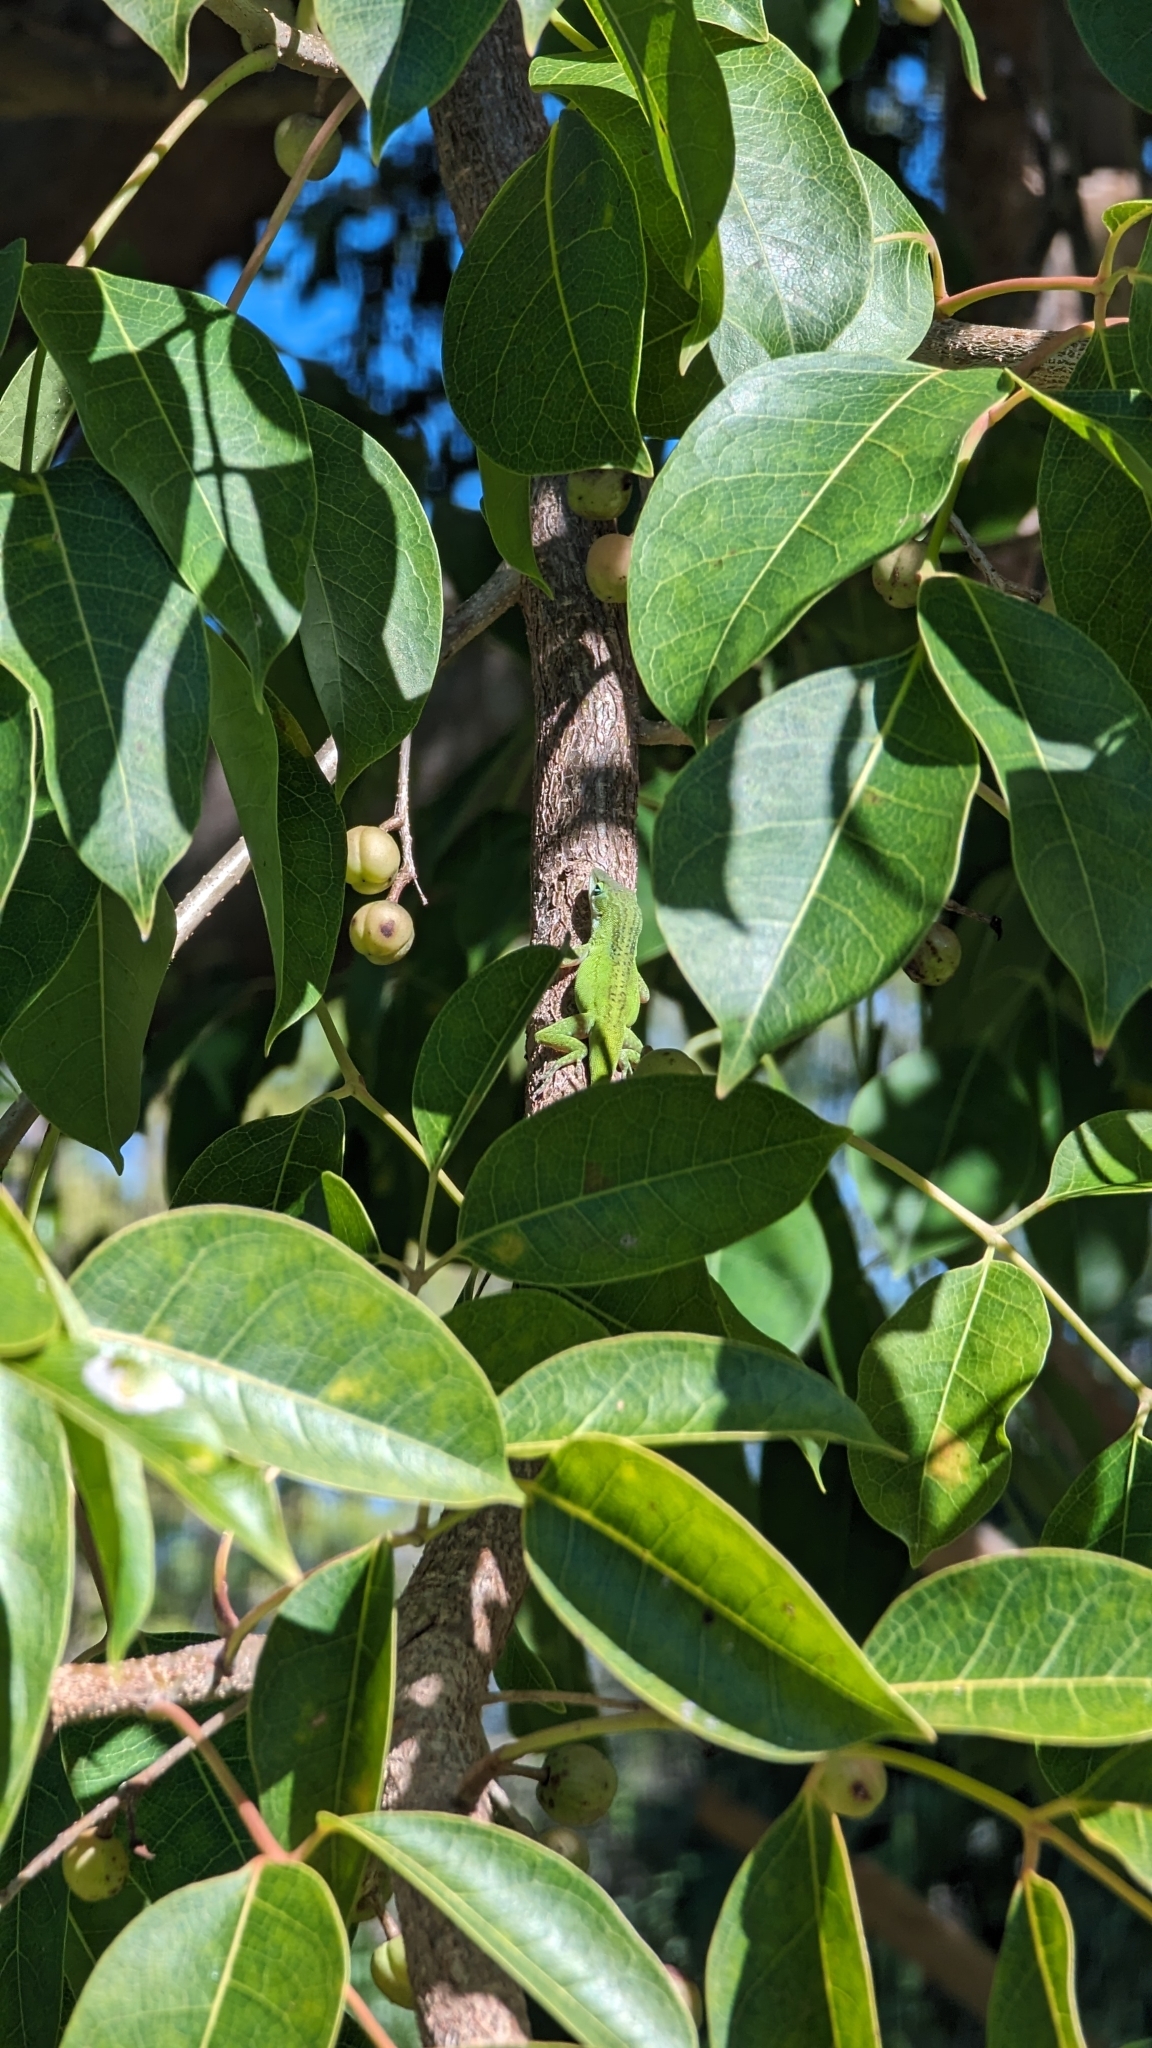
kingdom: Animalia
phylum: Chordata
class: Squamata
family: Dactyloidae
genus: Anolis
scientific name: Anolis carolinensis
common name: Green anole
